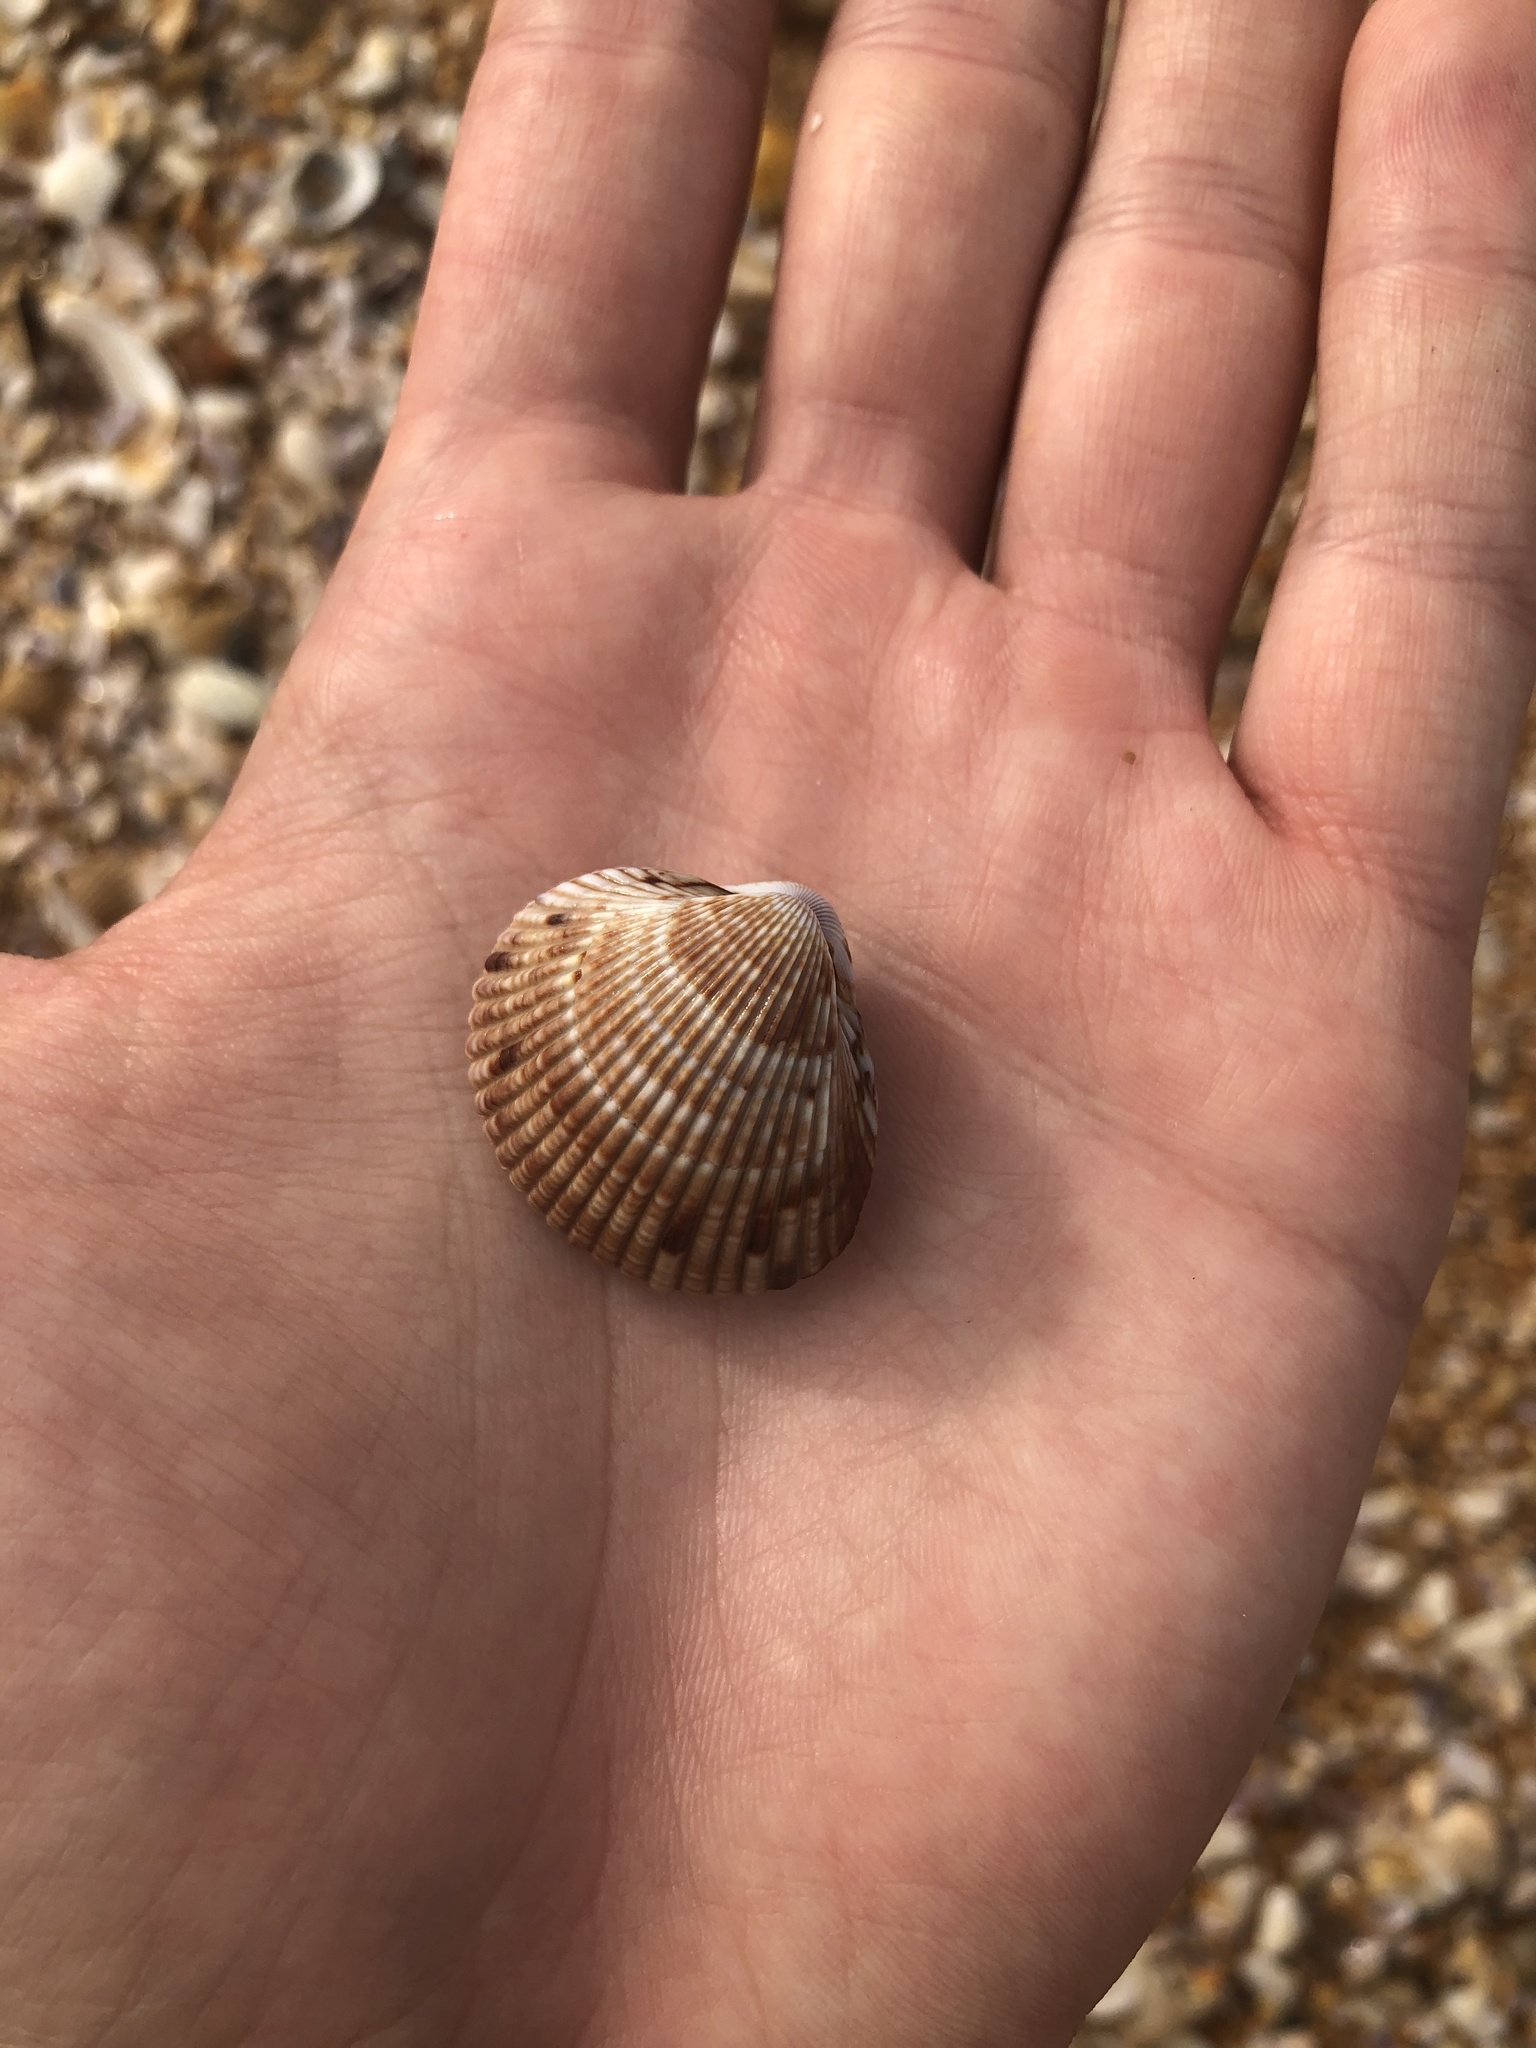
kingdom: Animalia
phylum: Mollusca
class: Bivalvia
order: Cardiida
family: Cardiidae
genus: Dinocardium
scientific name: Dinocardium robustum
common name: Atlantic giant cockle
